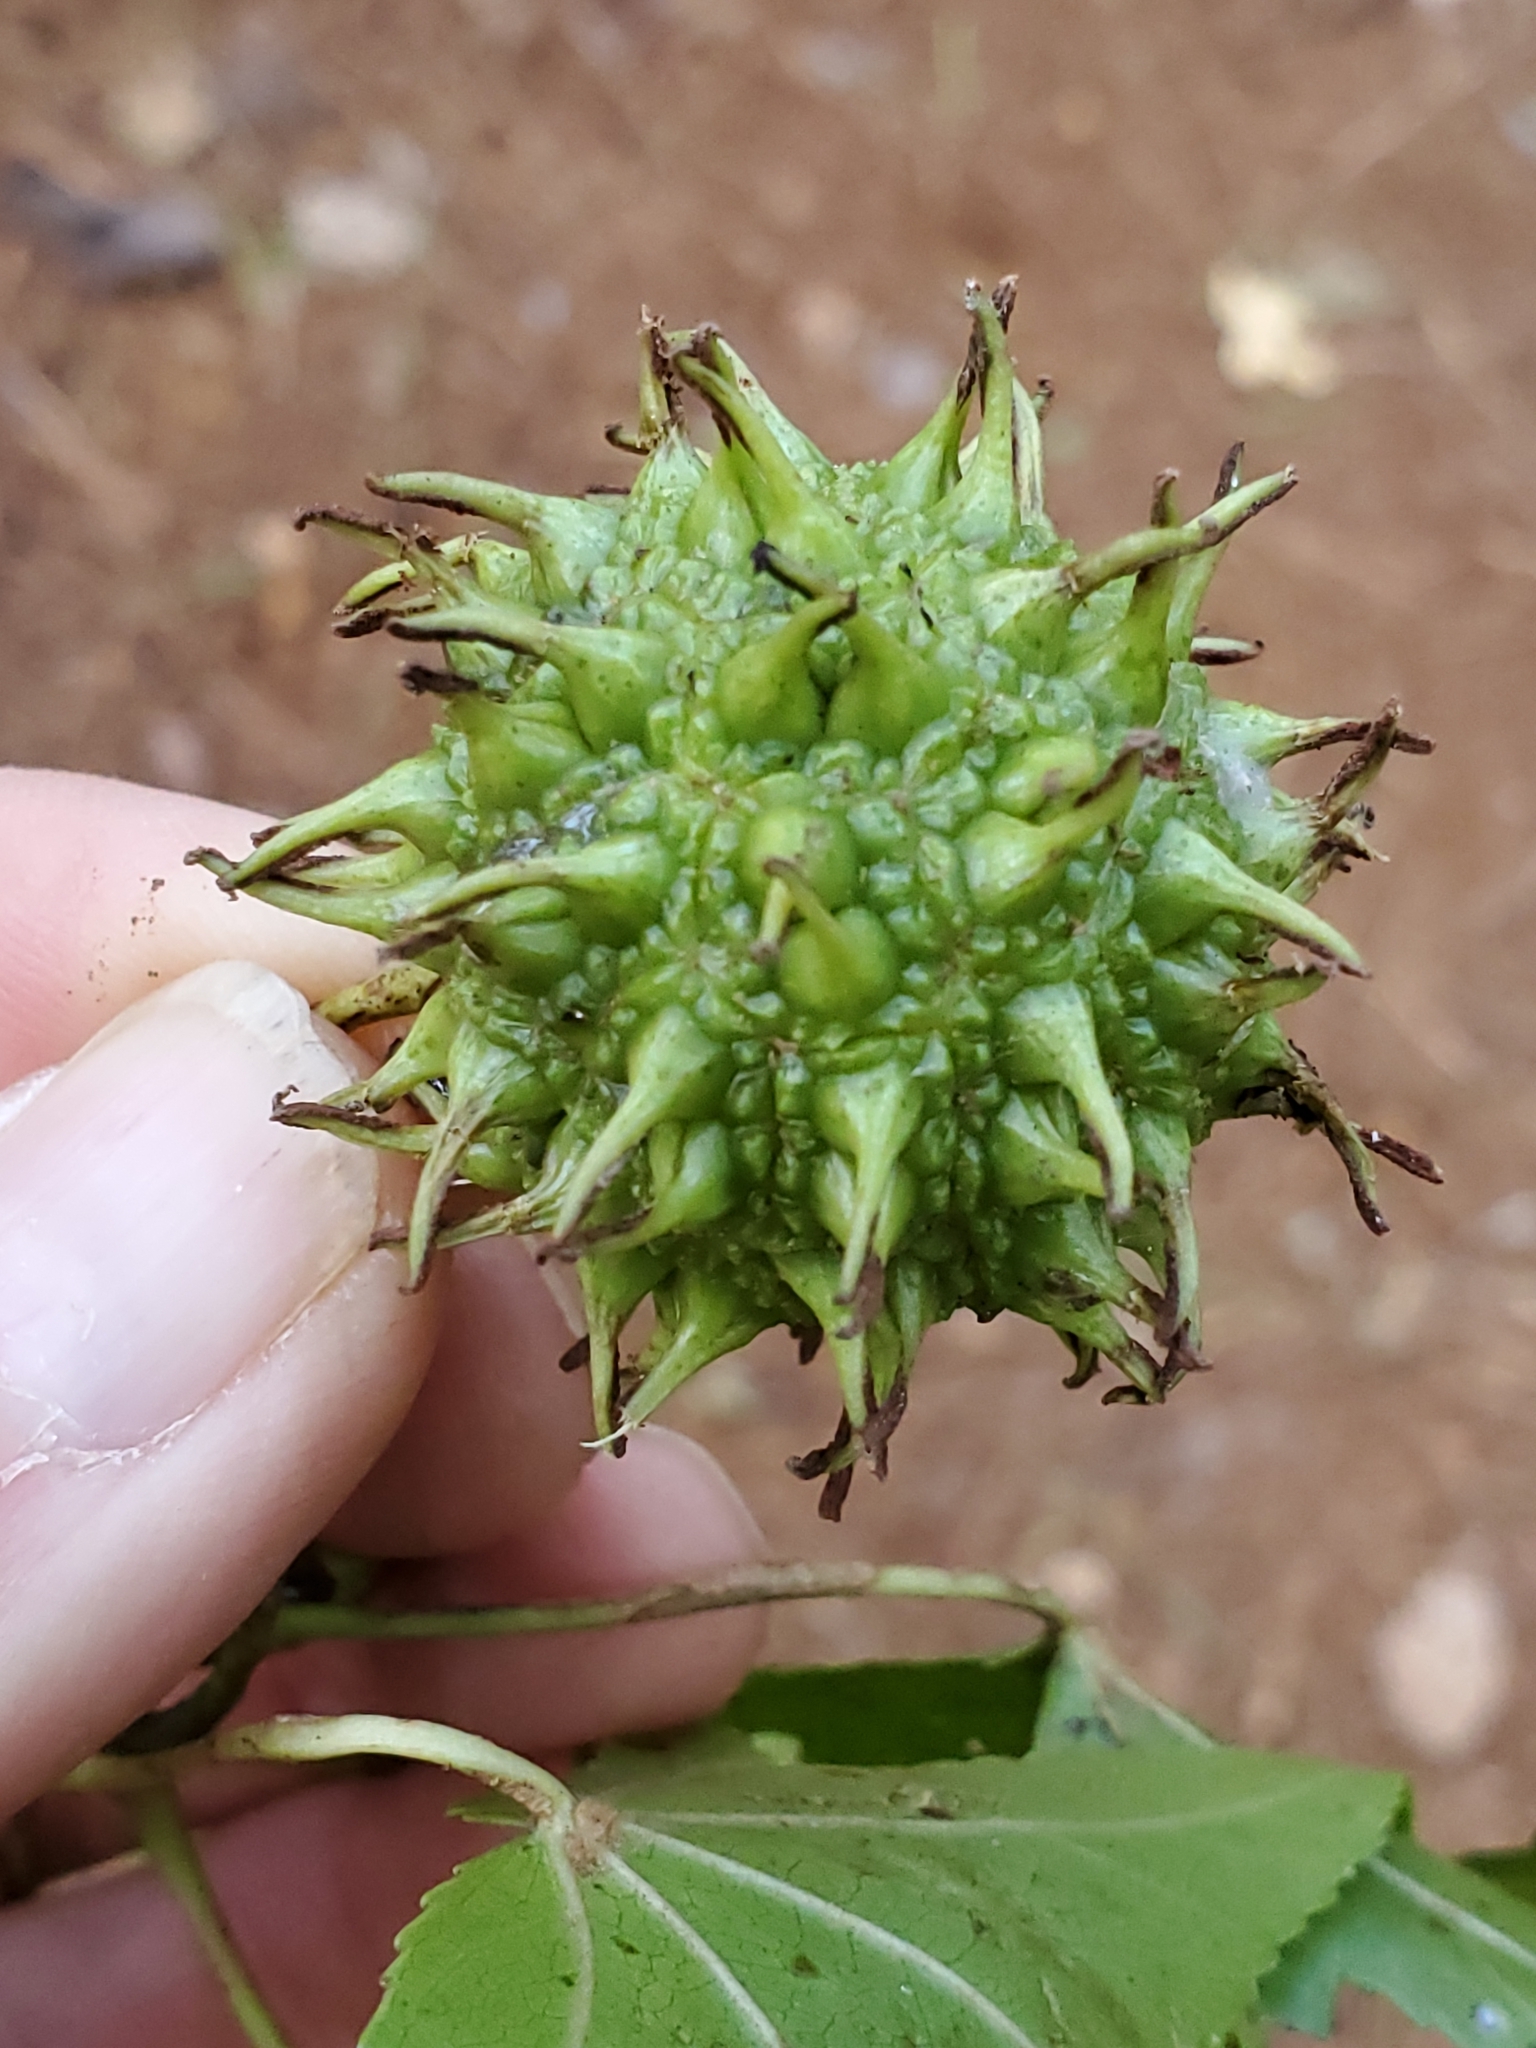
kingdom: Plantae
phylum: Tracheophyta
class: Magnoliopsida
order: Saxifragales
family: Altingiaceae
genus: Liquidambar
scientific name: Liquidambar styraciflua
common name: Sweet gum
